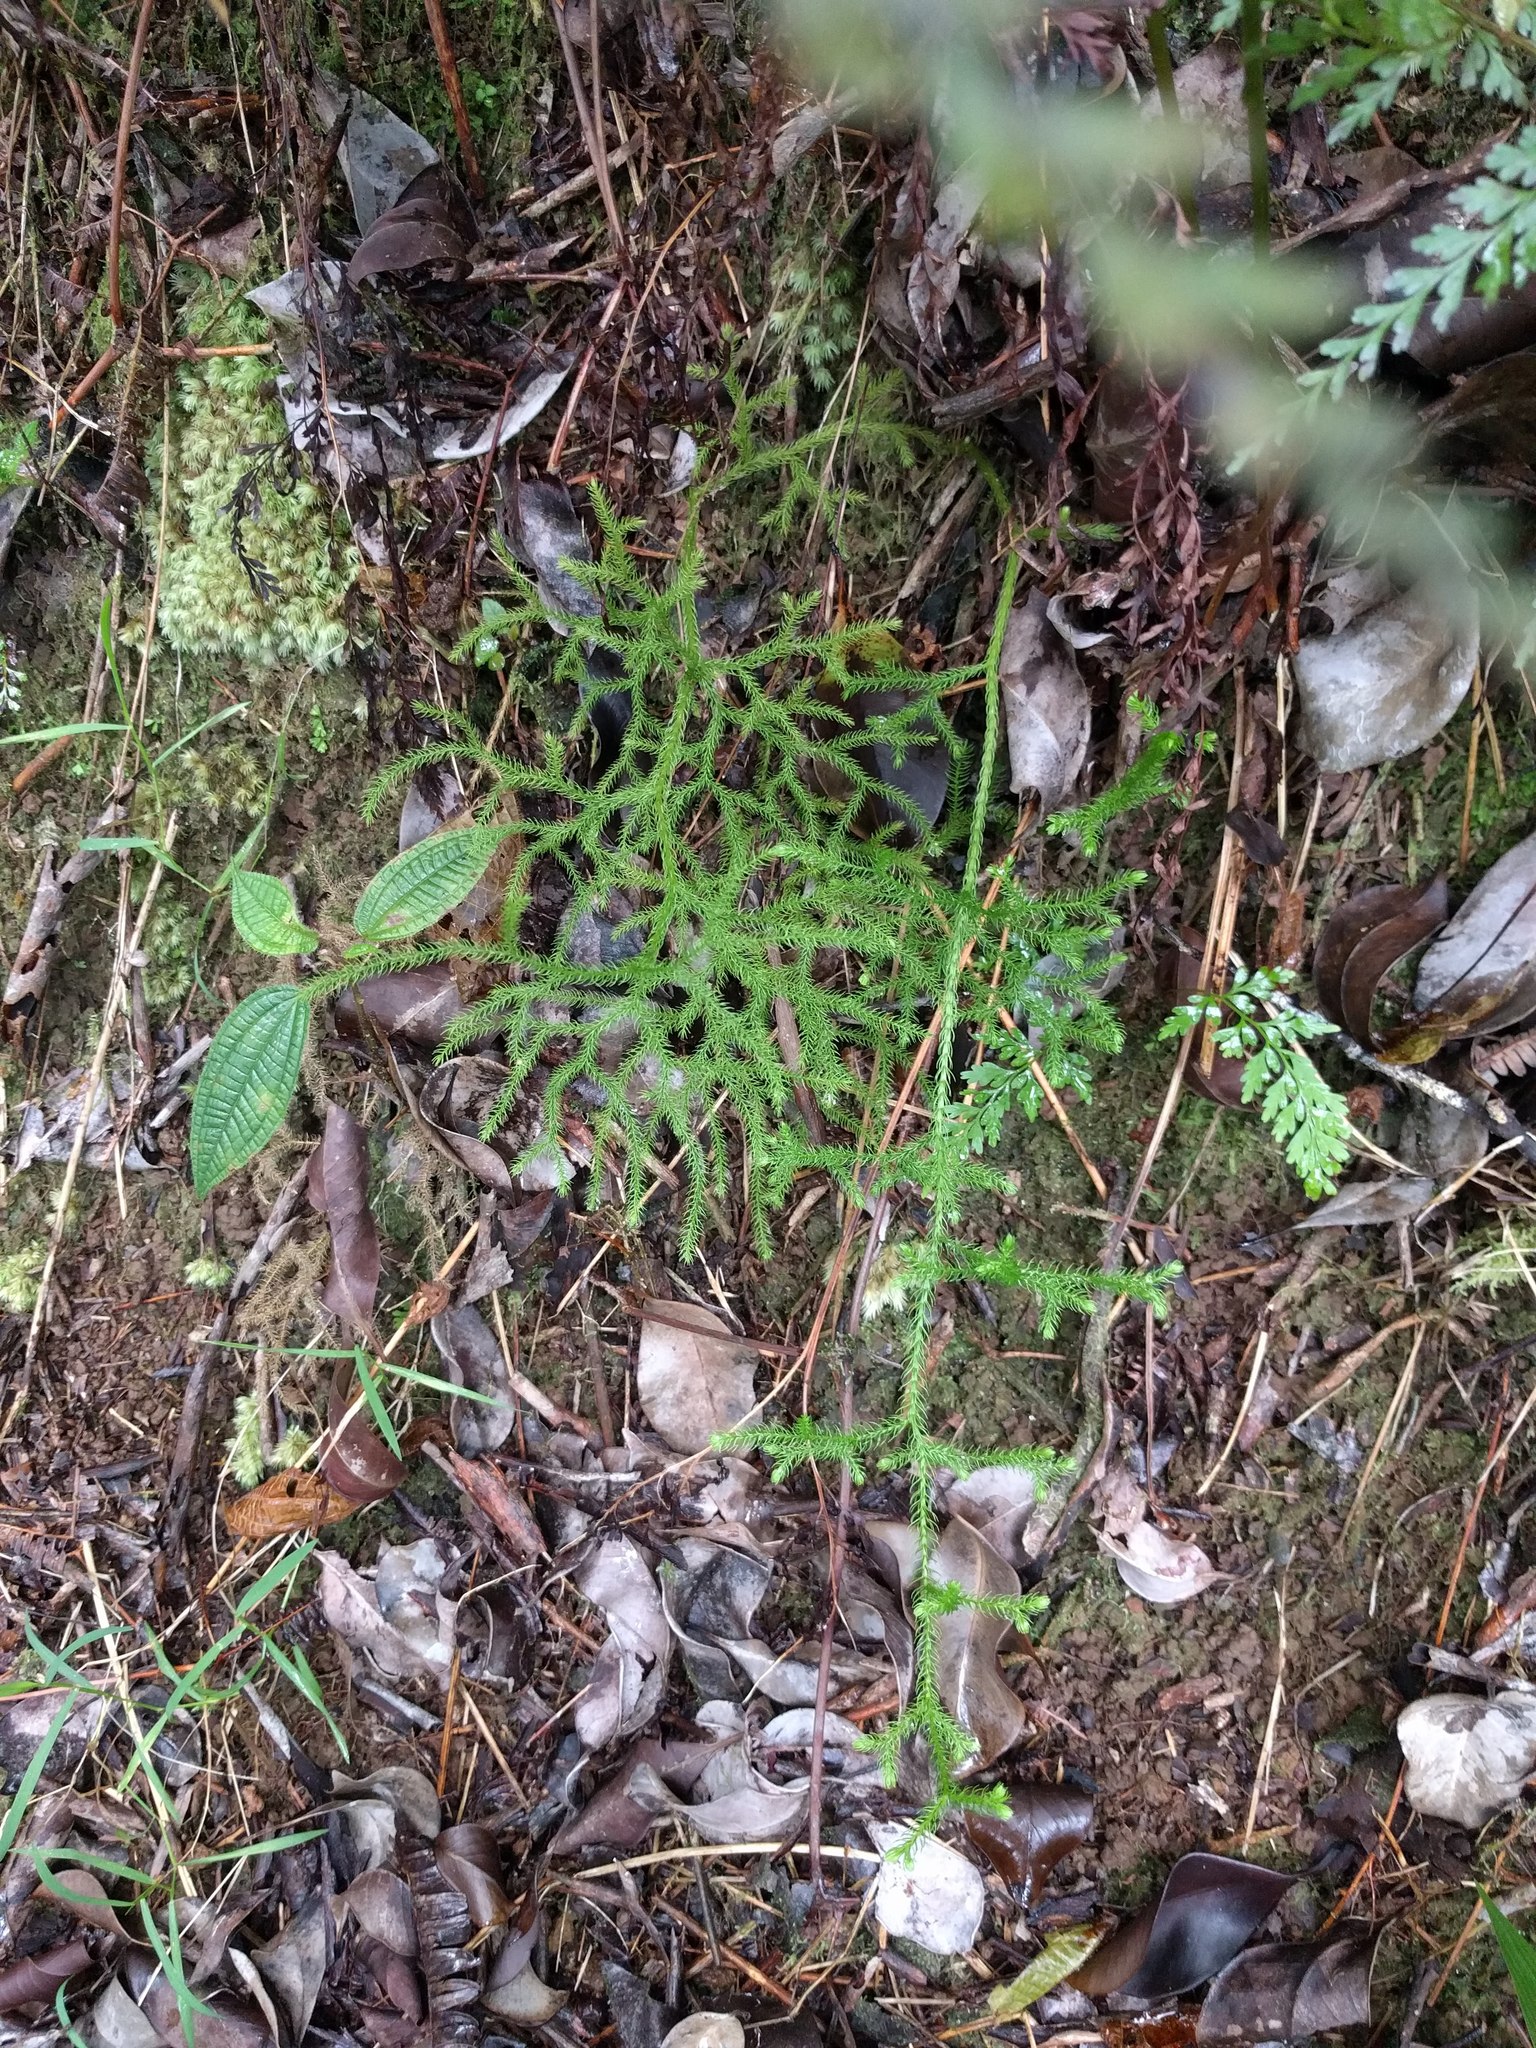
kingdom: Plantae
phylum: Tracheophyta
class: Lycopodiopsida
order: Lycopodiales
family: Lycopodiaceae
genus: Palhinhaea
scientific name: Palhinhaea cernua
